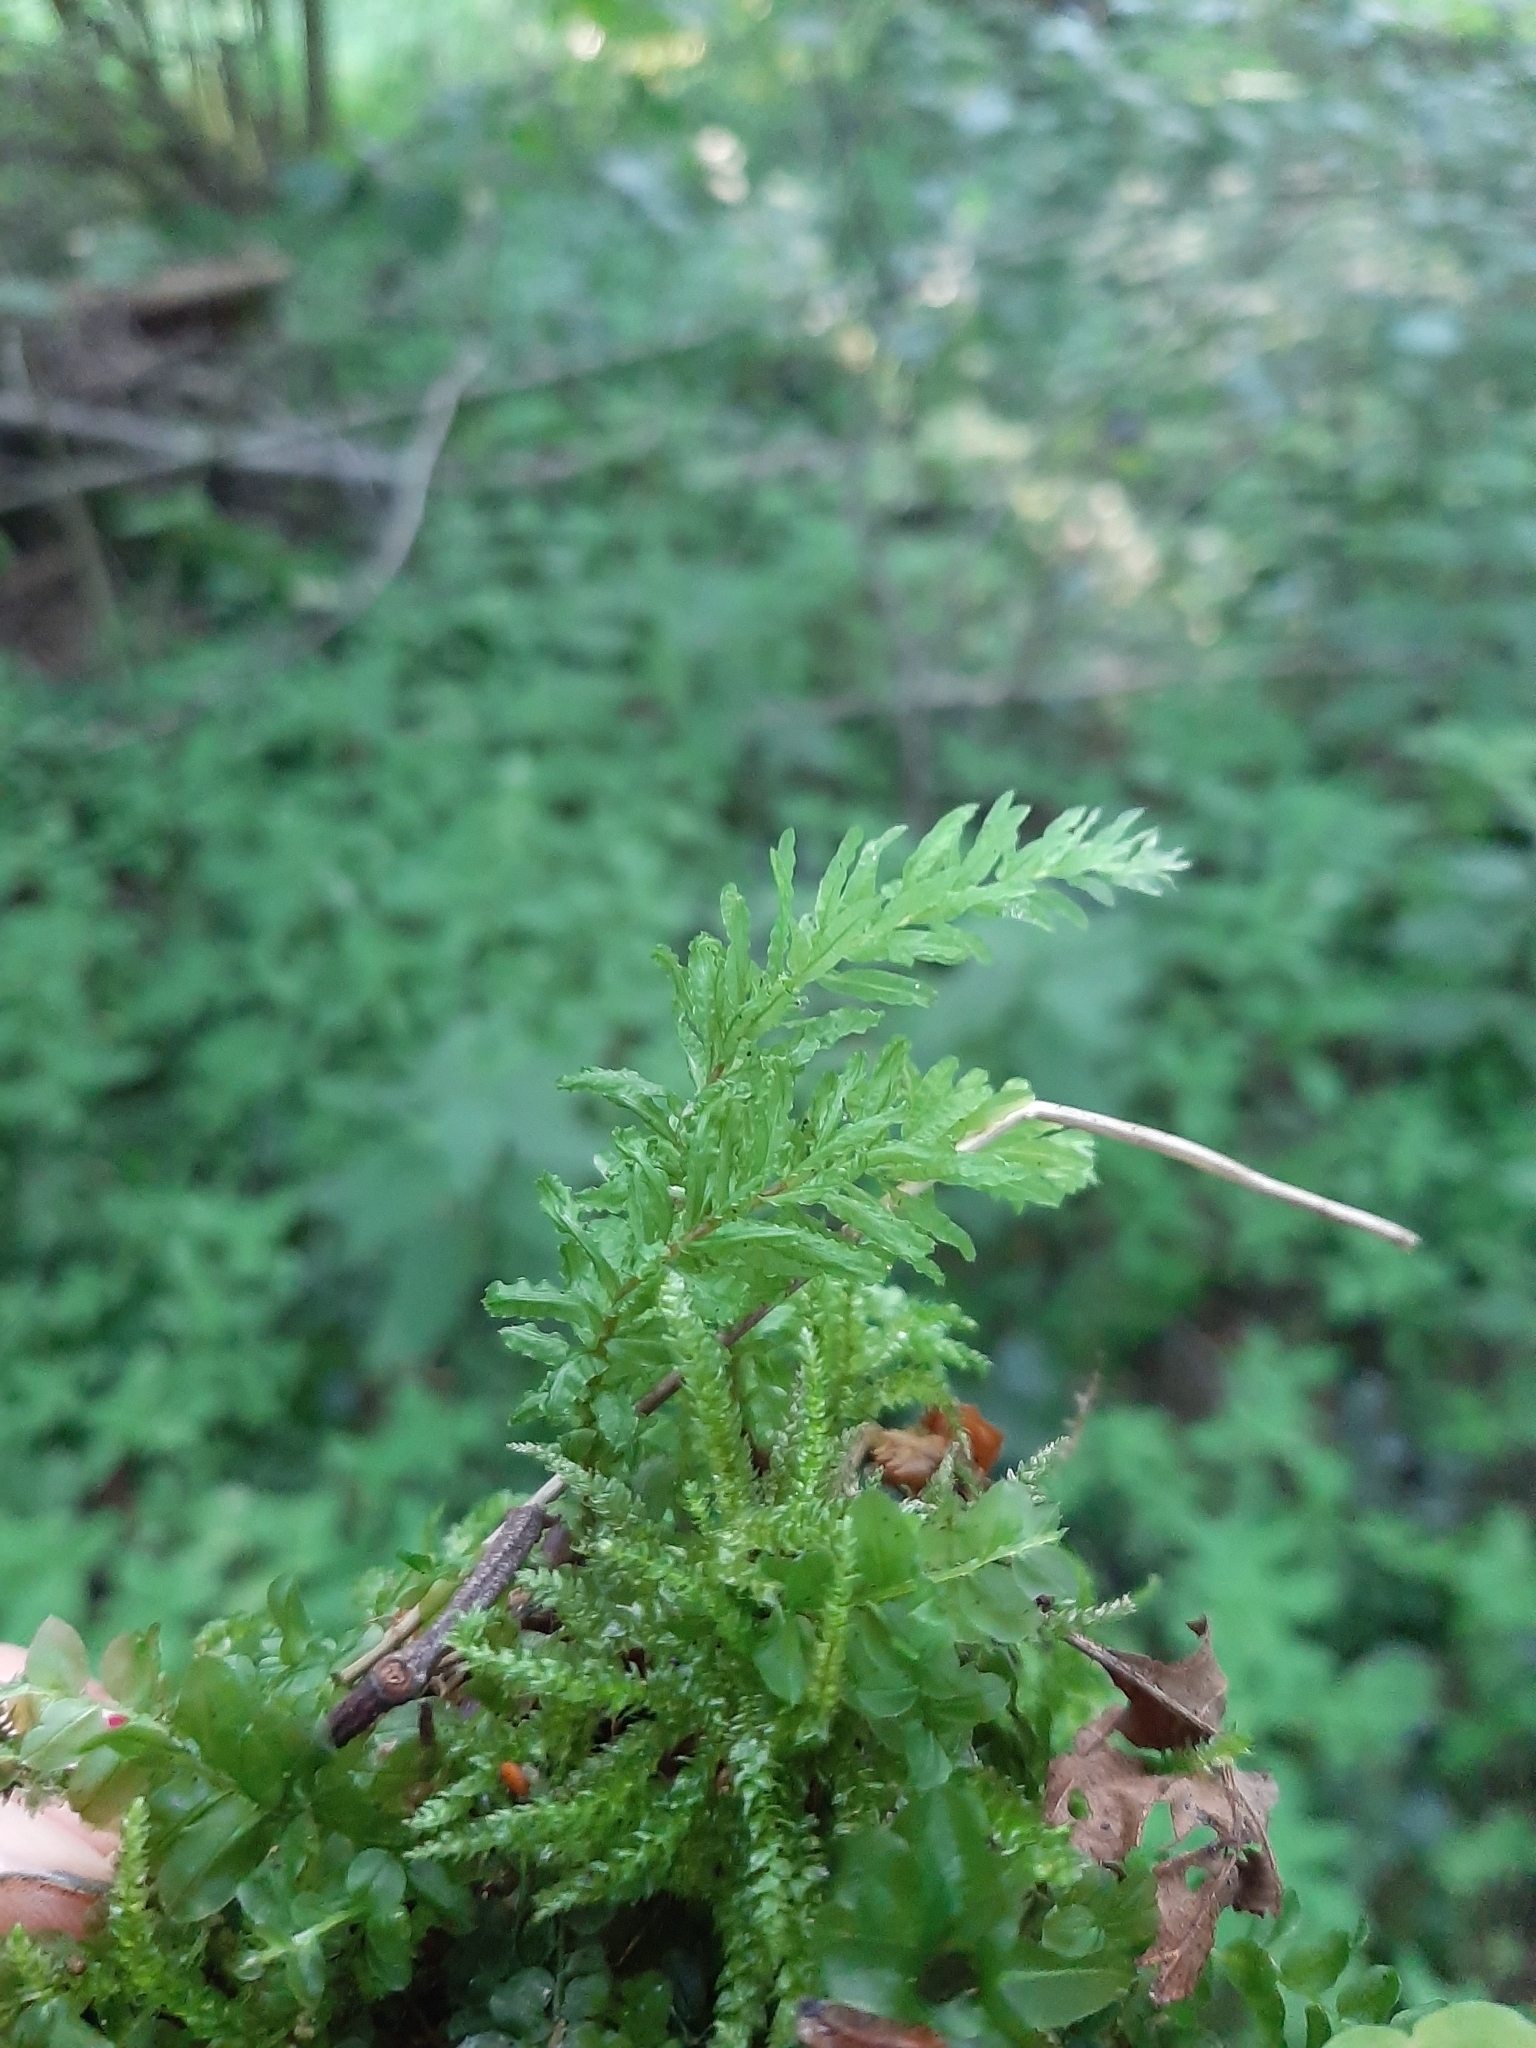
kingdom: Plantae
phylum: Bryophyta
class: Bryopsida
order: Bryales
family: Mniaceae
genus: Plagiomnium
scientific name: Plagiomnium undulatum
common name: Hart's-tongue thyme-moss
